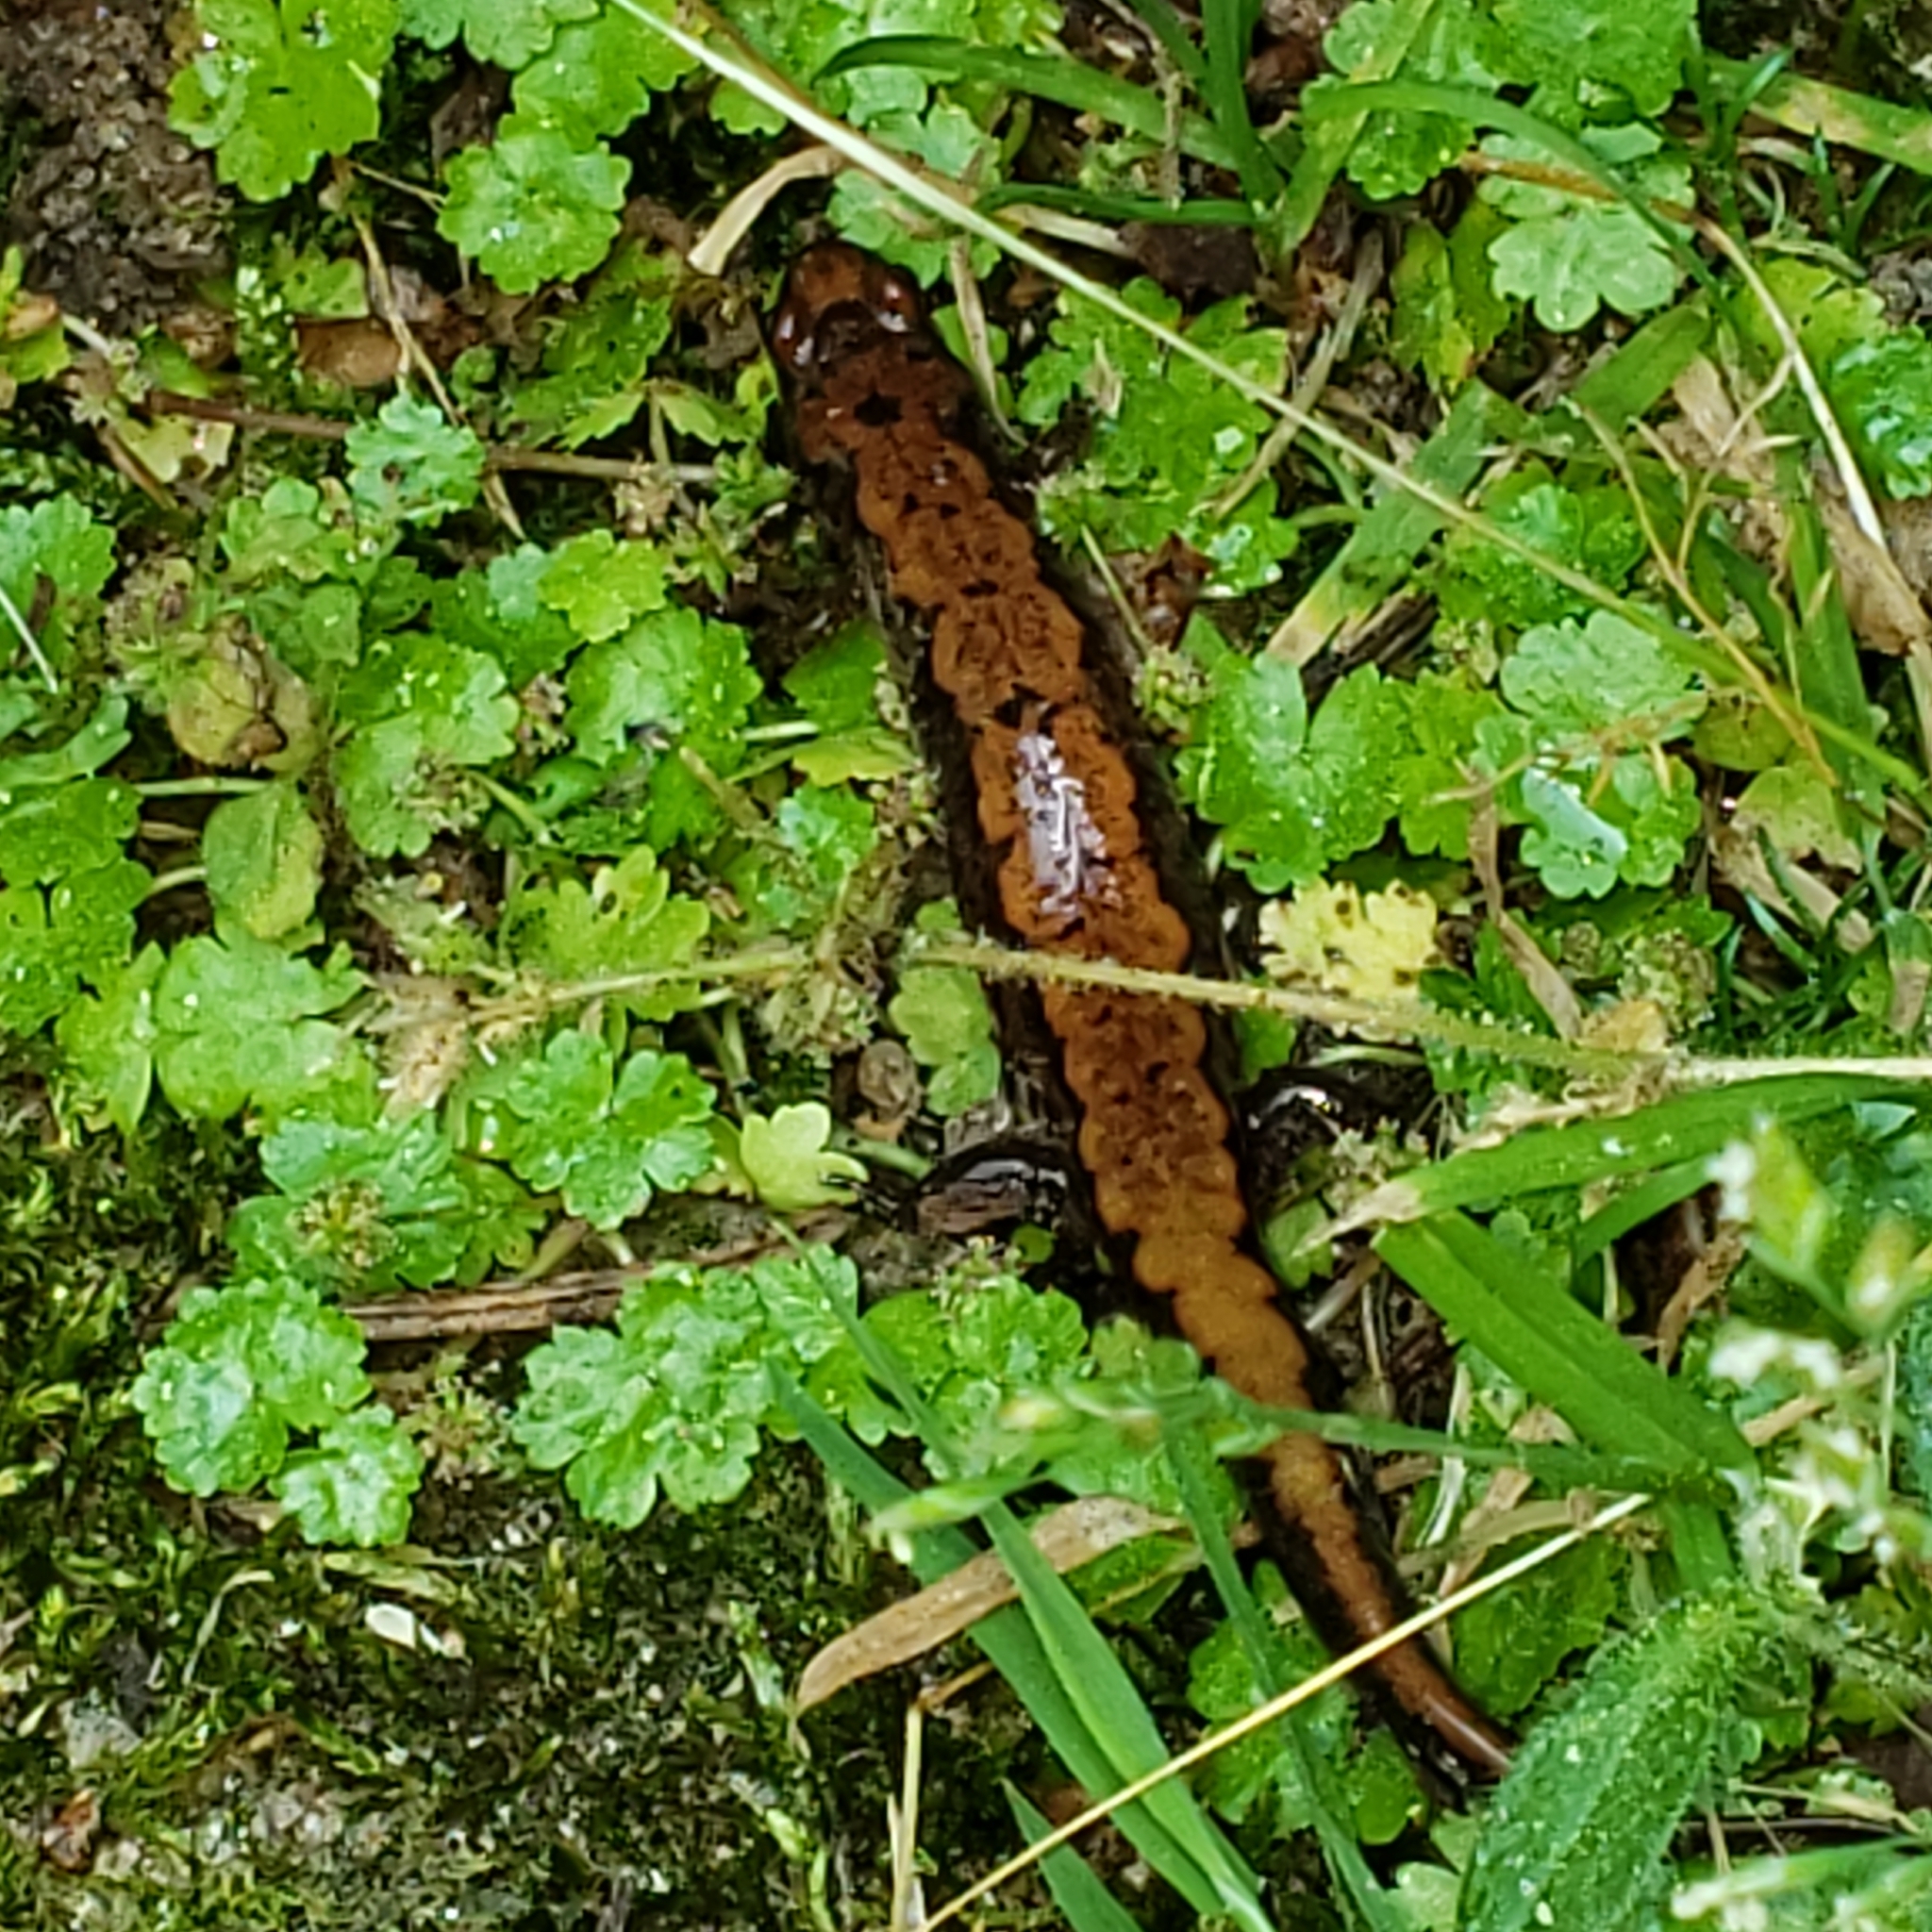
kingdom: Animalia
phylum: Chordata
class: Amphibia
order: Caudata
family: Plethodontidae
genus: Desmognathus
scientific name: Desmognathus
